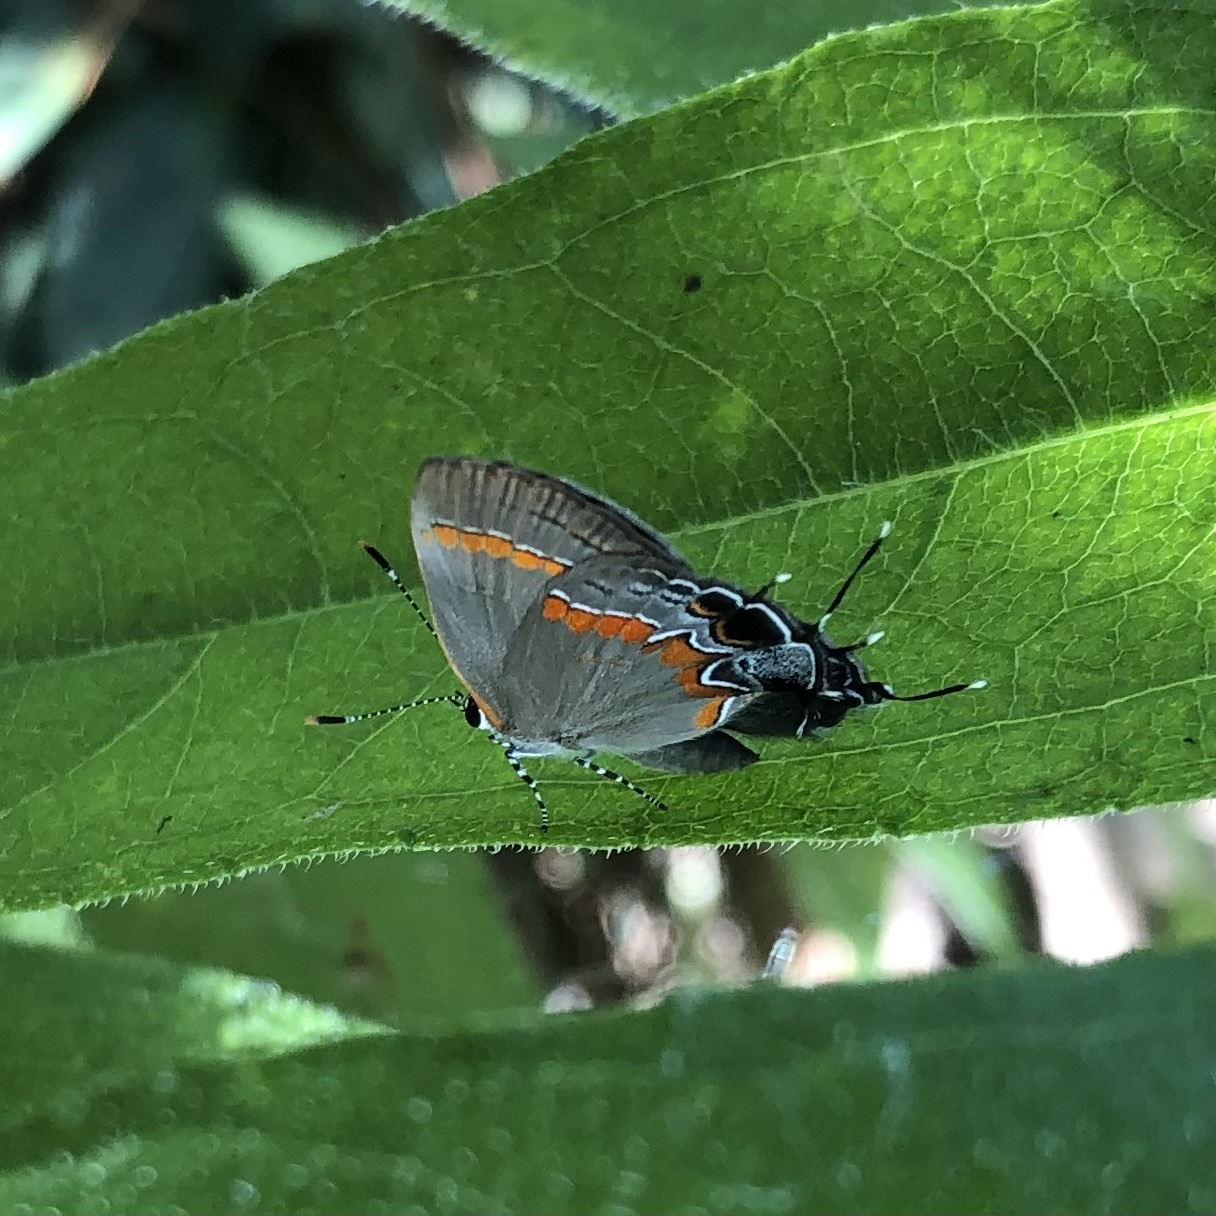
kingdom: Animalia
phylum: Arthropoda
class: Insecta
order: Lepidoptera
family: Lycaenidae
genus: Calycopis
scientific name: Calycopis cecrops
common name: Red-banded hairstreak
